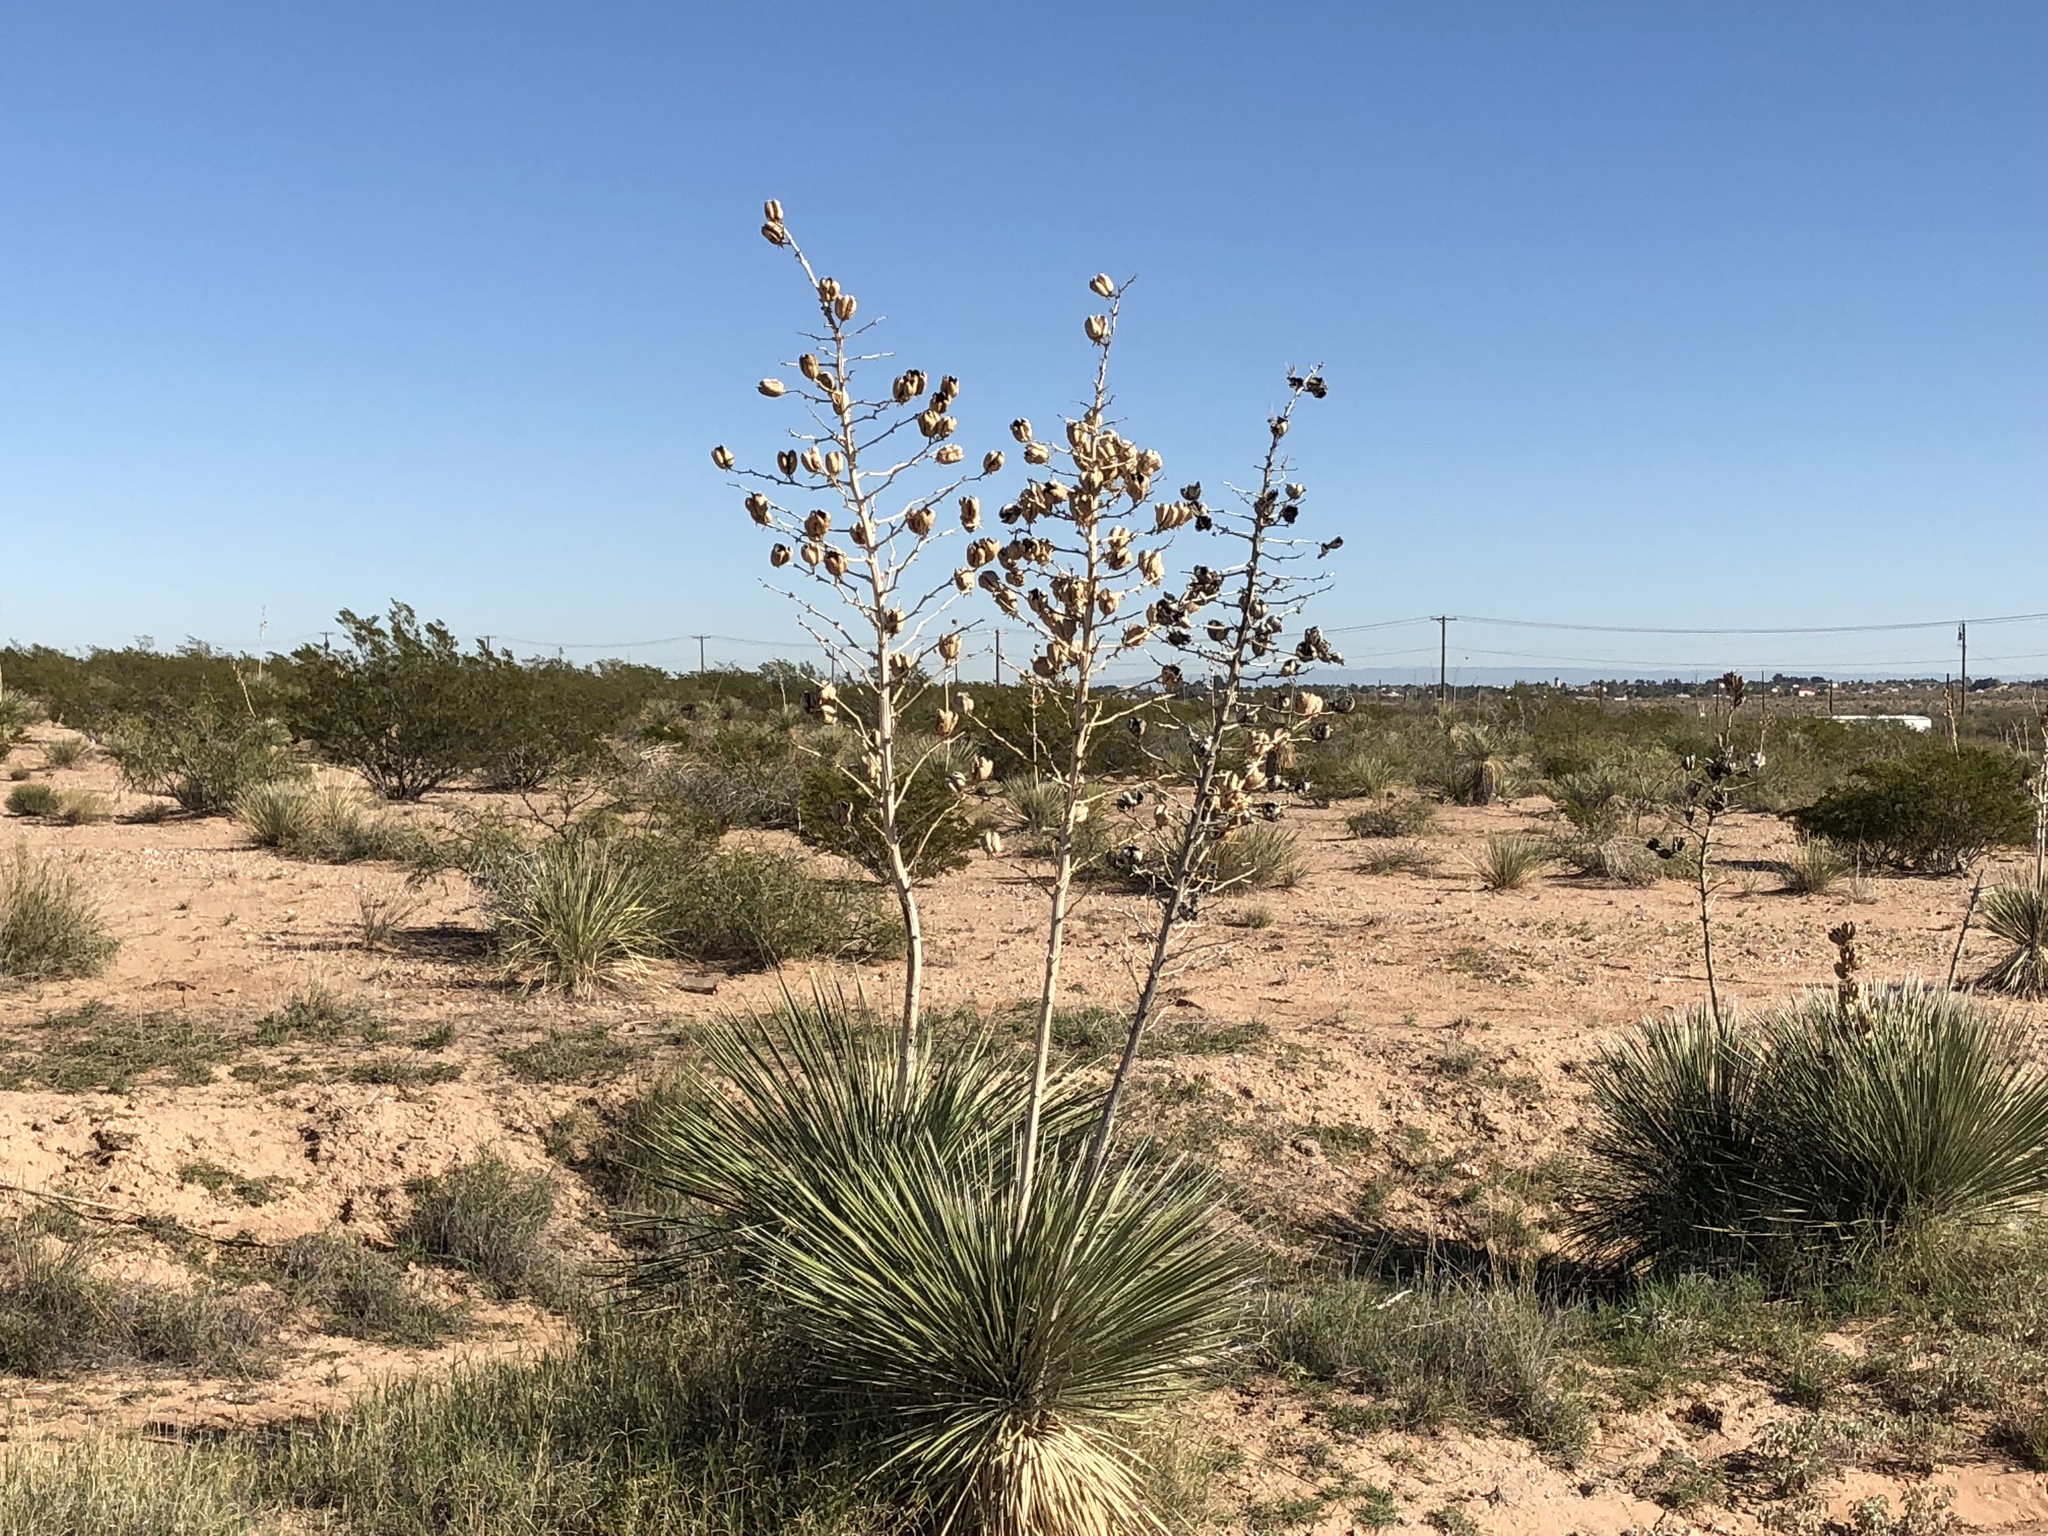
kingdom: Plantae
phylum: Tracheophyta
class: Liliopsida
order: Asparagales
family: Asparagaceae
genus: Yucca
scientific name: Yucca elata
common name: Palmella
